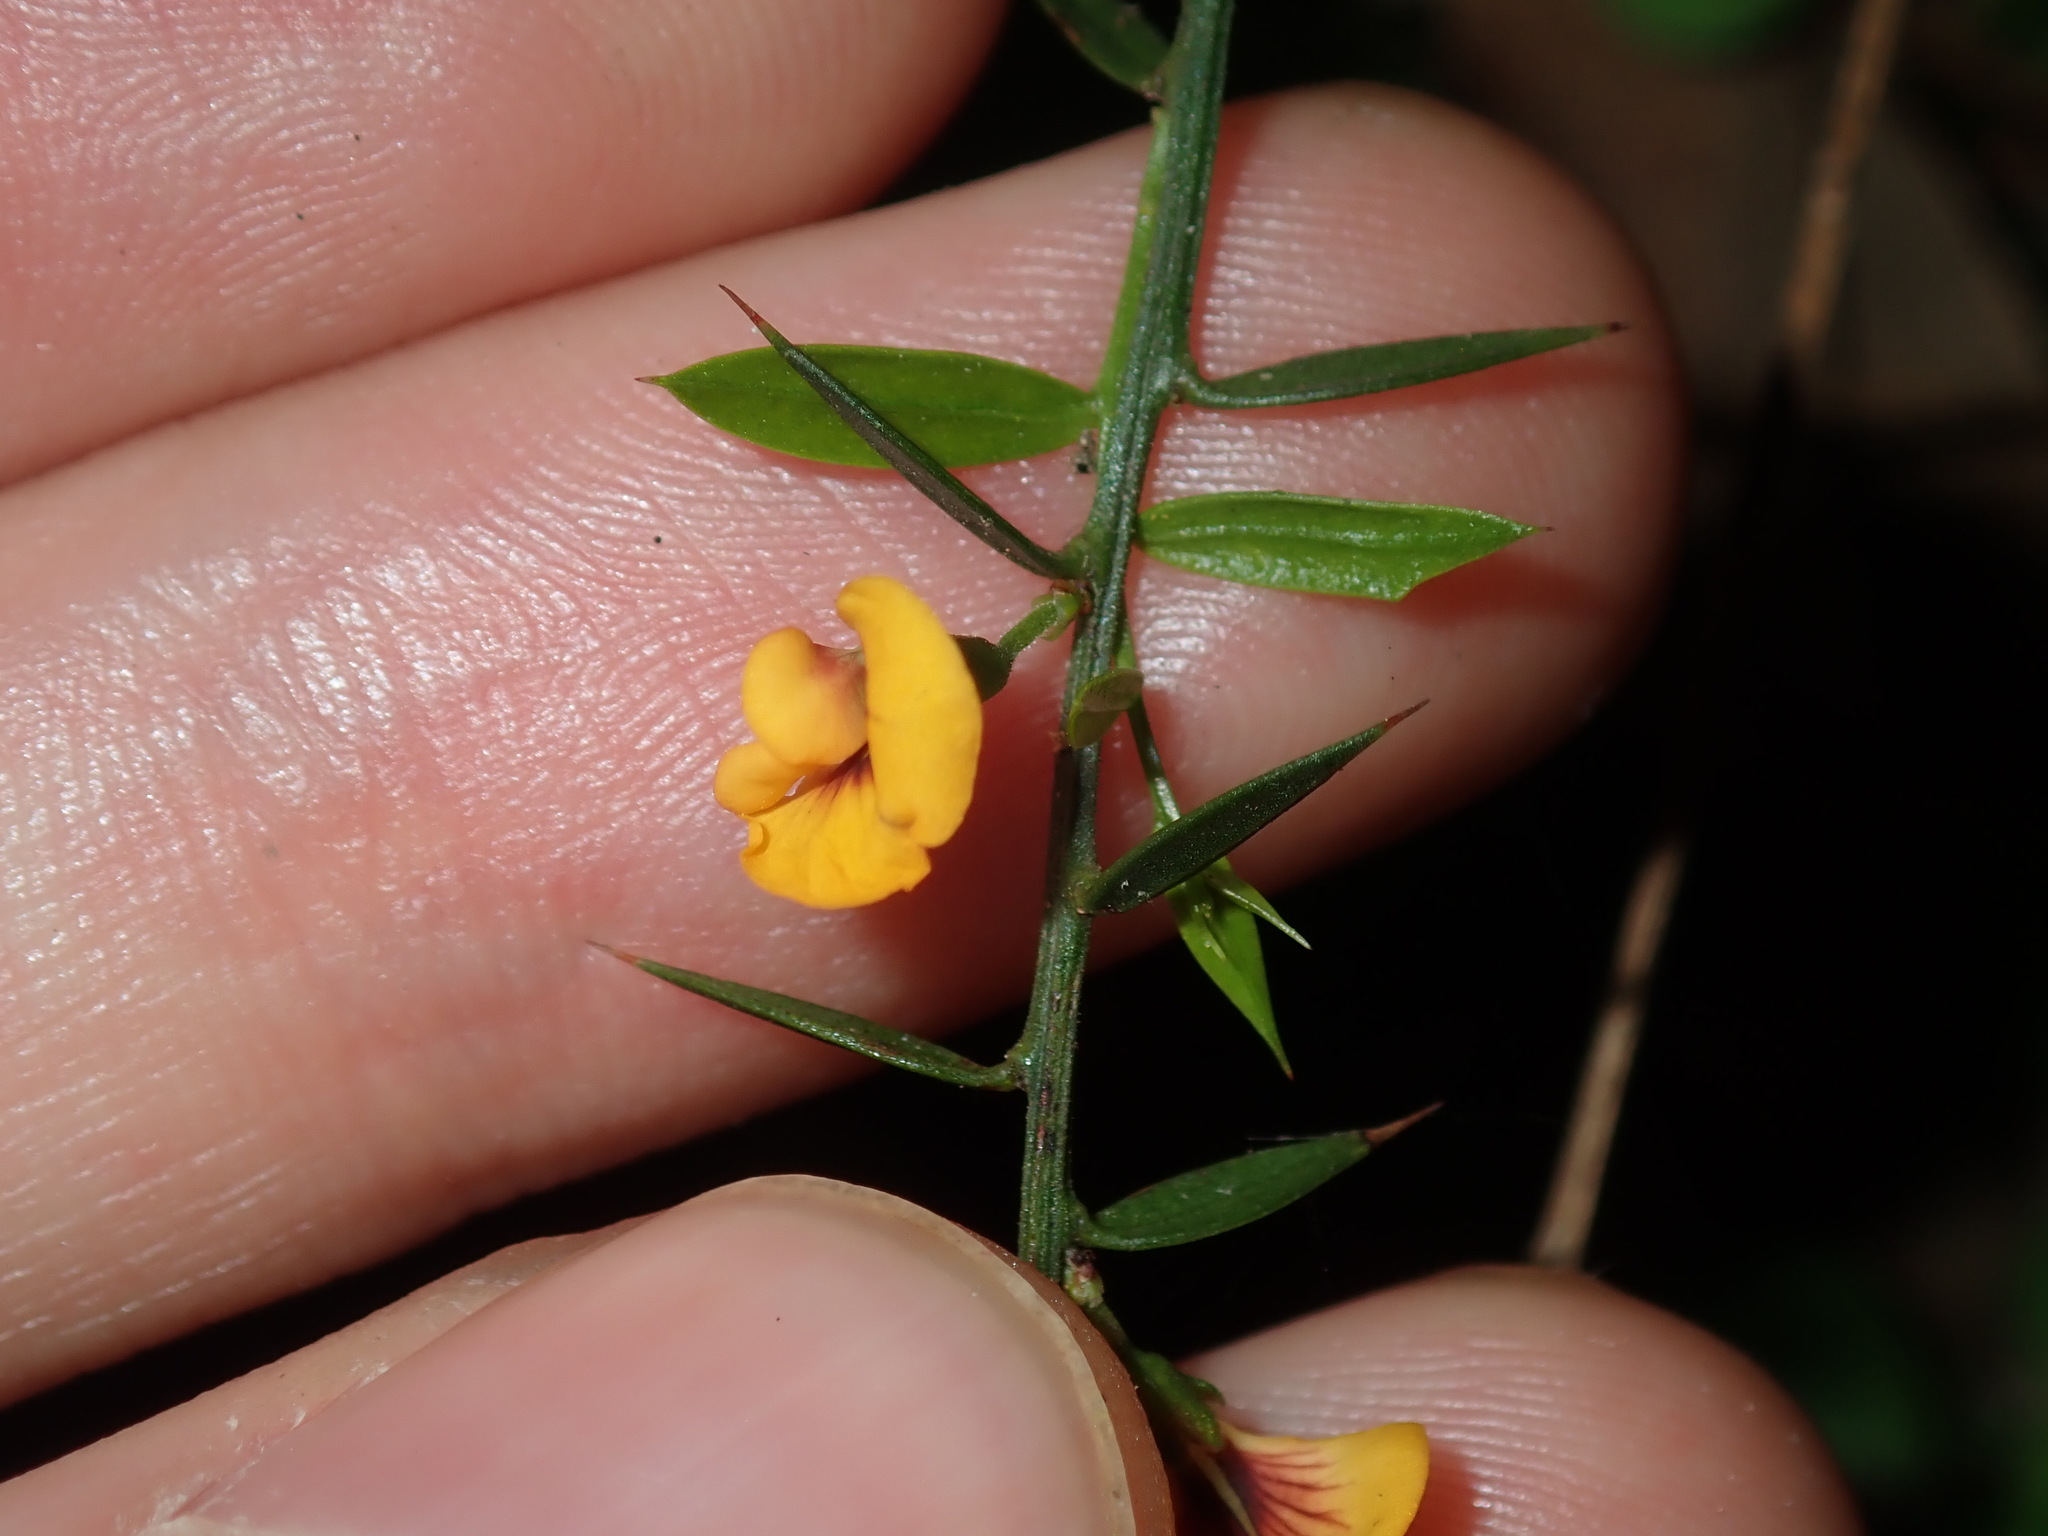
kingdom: Plantae
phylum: Tracheophyta
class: Magnoliopsida
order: Fabales
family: Fabaceae
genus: Daviesia
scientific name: Daviesia ulicifolia
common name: Gorse bitter-pea
